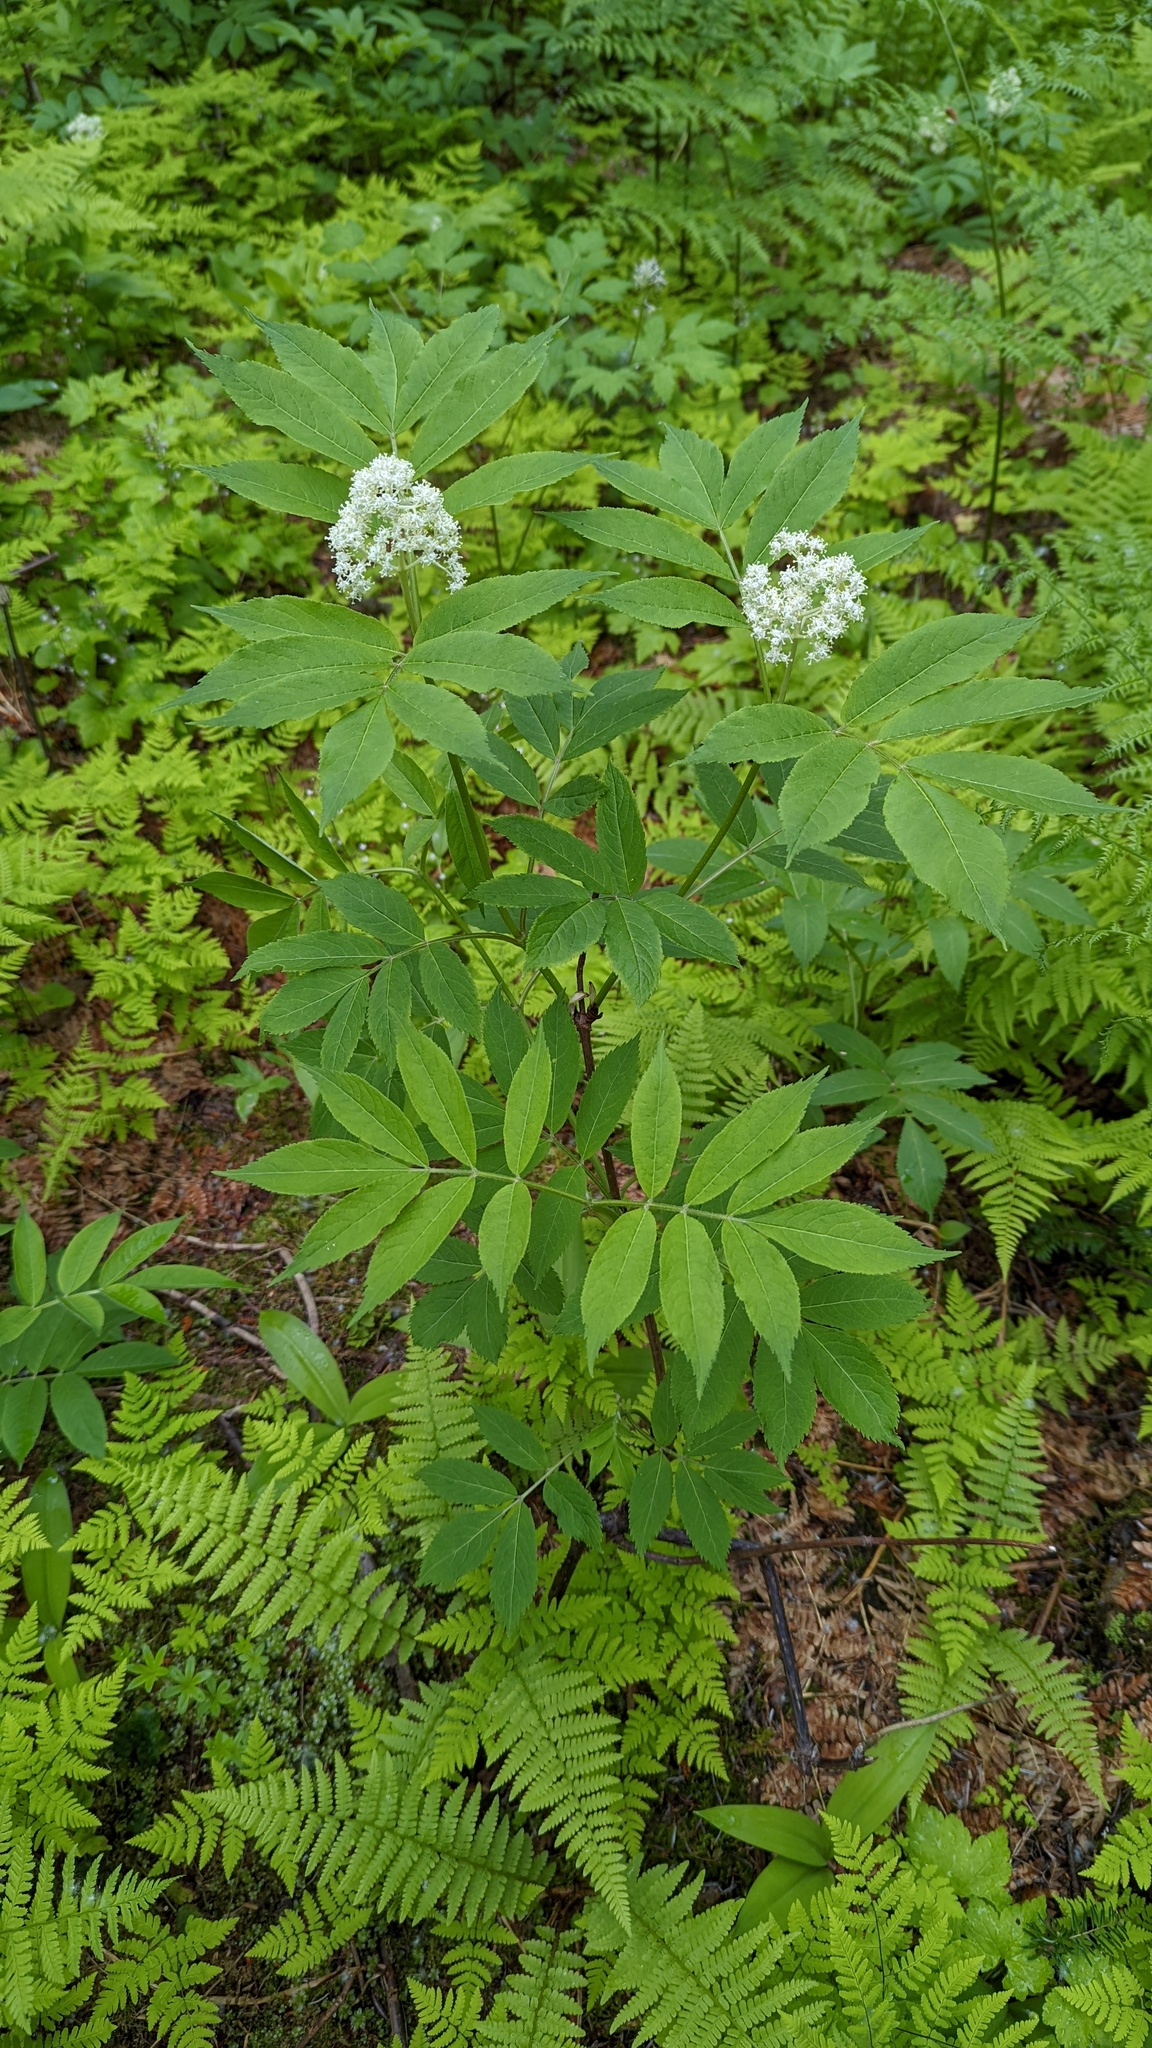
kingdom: Plantae
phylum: Tracheophyta
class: Magnoliopsida
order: Dipsacales
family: Viburnaceae
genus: Sambucus
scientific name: Sambucus racemosa
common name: Red-berried elder
